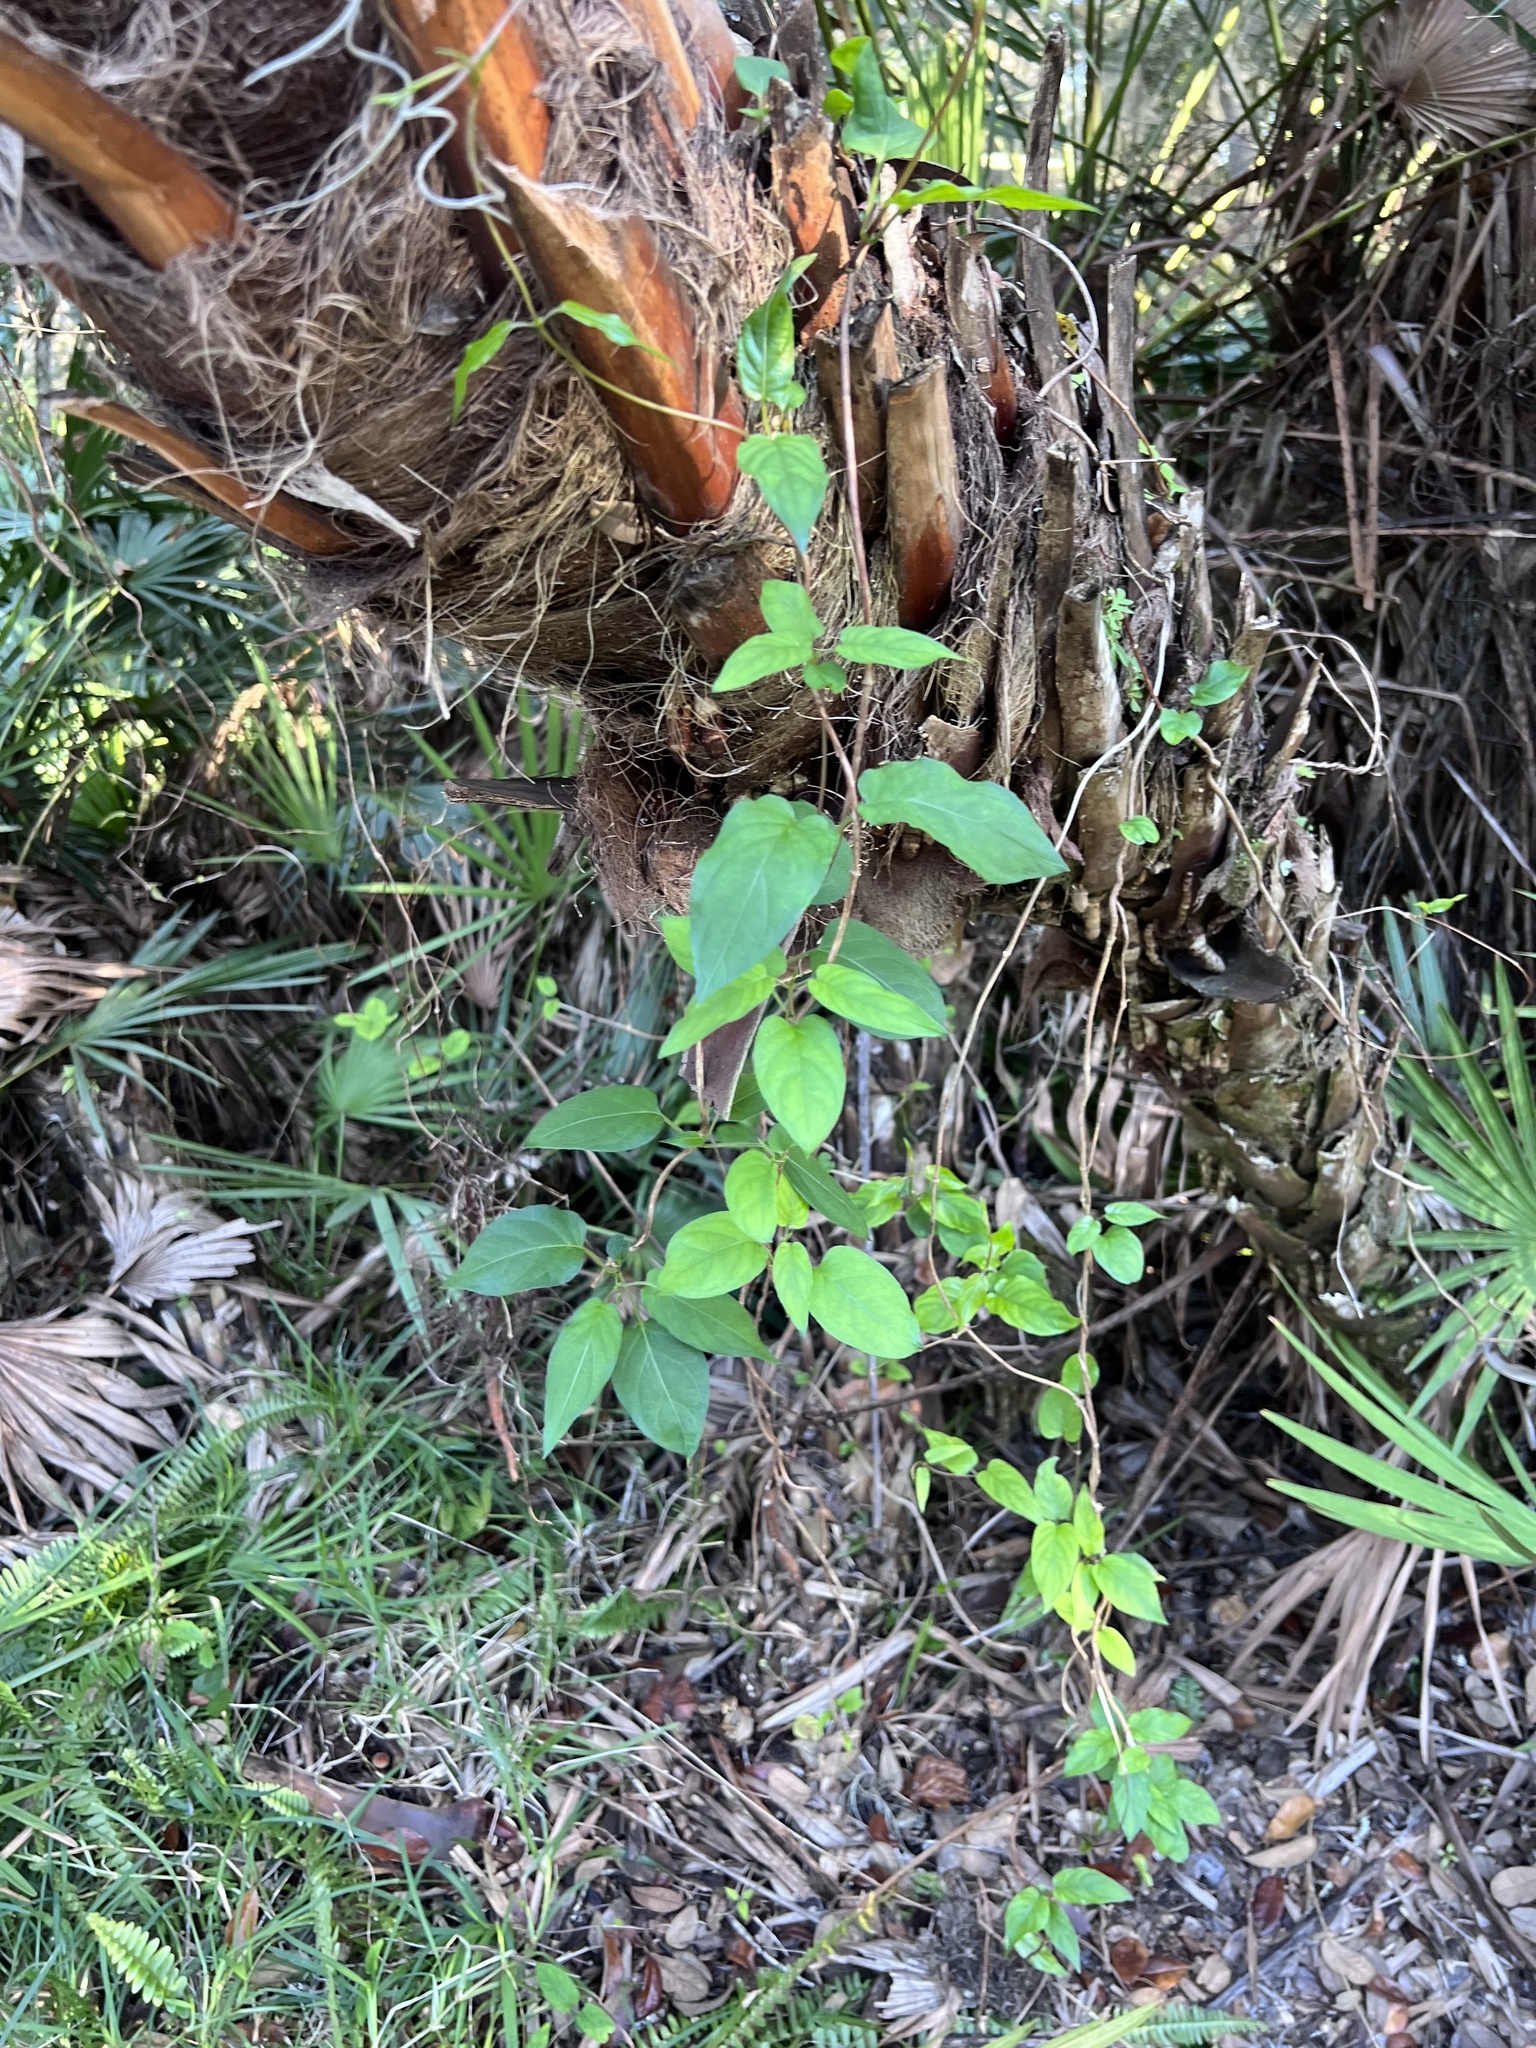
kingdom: Plantae
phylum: Tracheophyta
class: Magnoliopsida
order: Gentianales
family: Rubiaceae
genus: Paederia
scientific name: Paederia foetida
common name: Stinkvine
